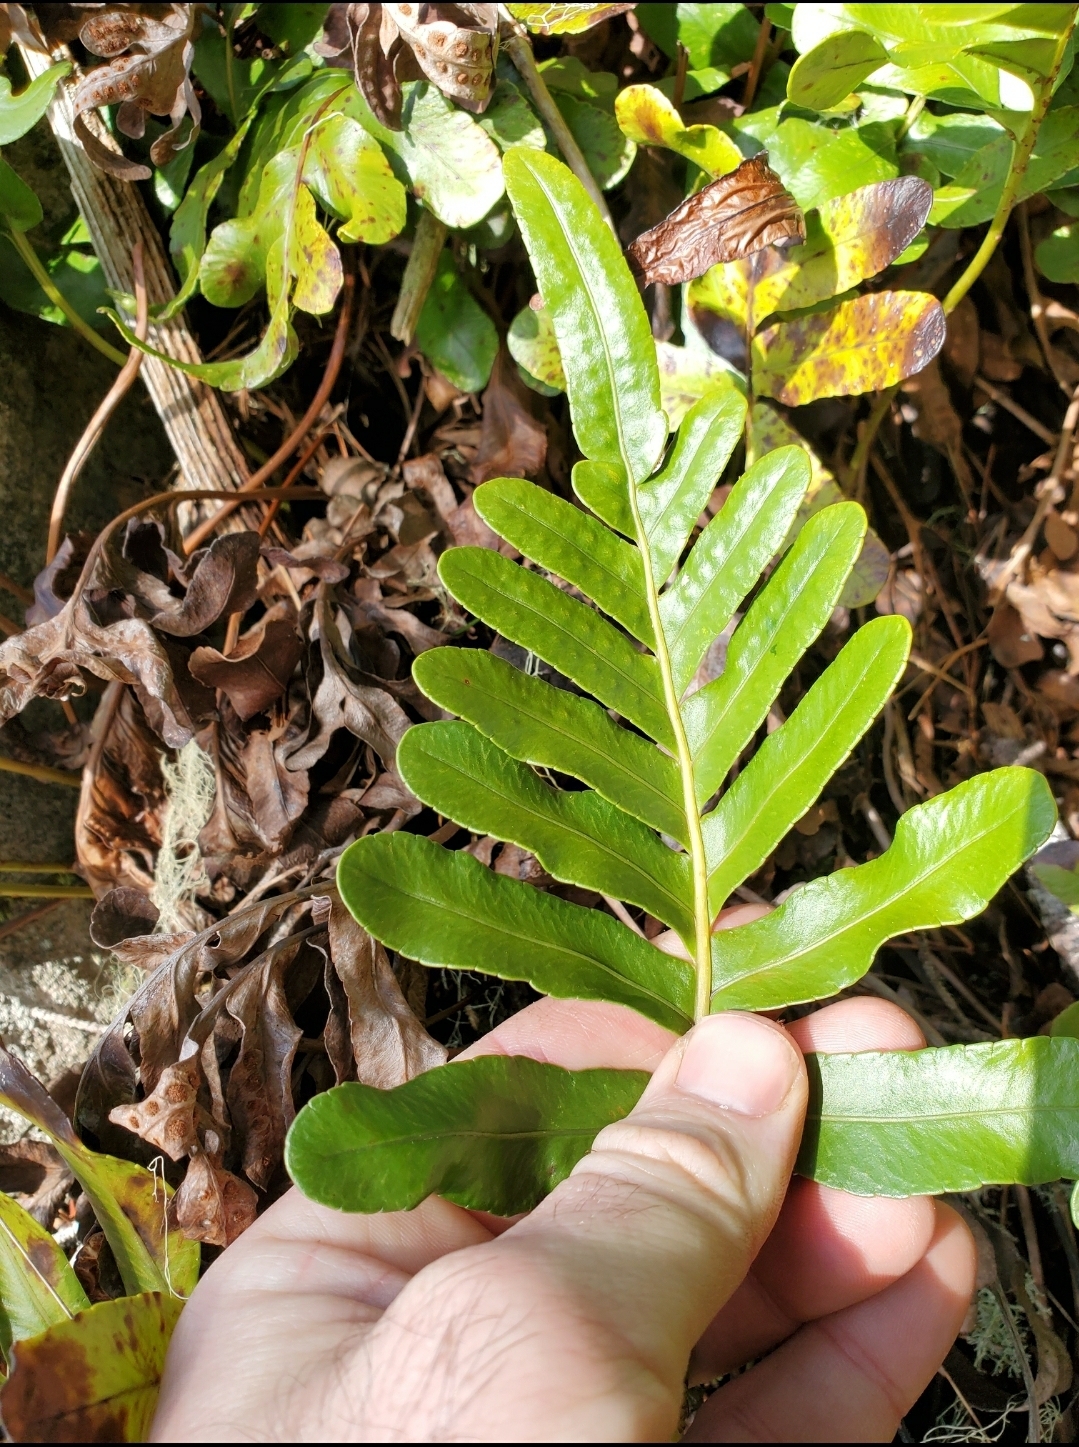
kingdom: Plantae
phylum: Tracheophyta
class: Polypodiopsida
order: Polypodiales
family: Polypodiaceae
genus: Polypodium
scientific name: Polypodium scouleri
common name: Scouler's polypody
